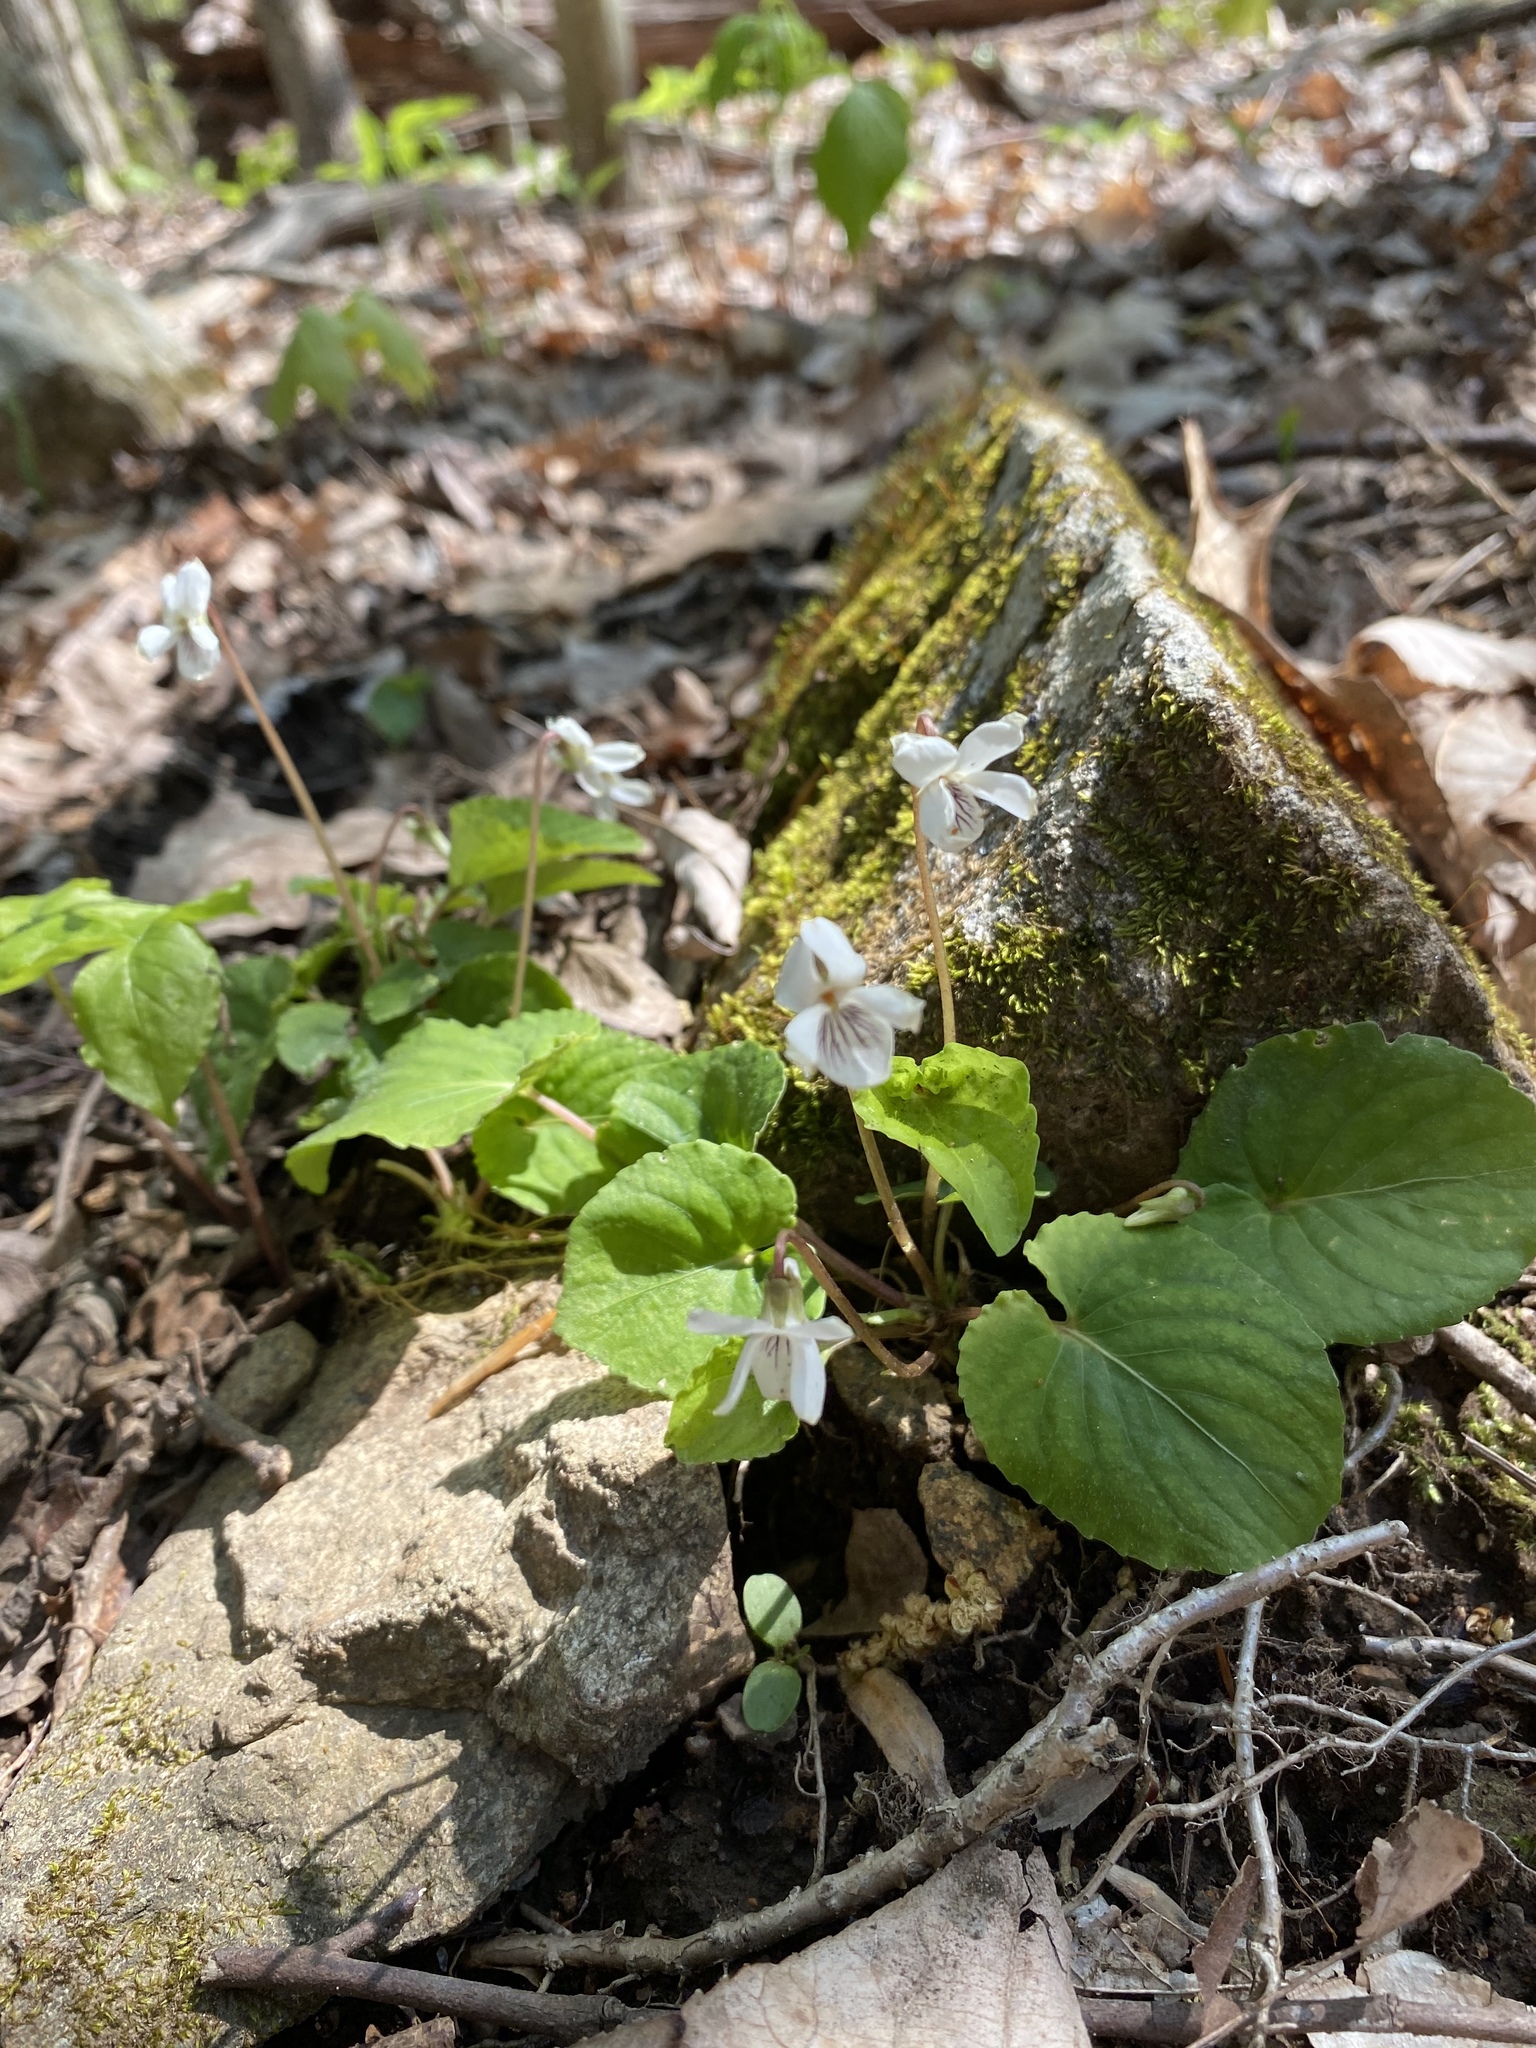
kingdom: Plantae
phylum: Tracheophyta
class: Magnoliopsida
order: Malpighiales
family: Violaceae
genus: Viola
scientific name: Viola blanda
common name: Sweet white violet
